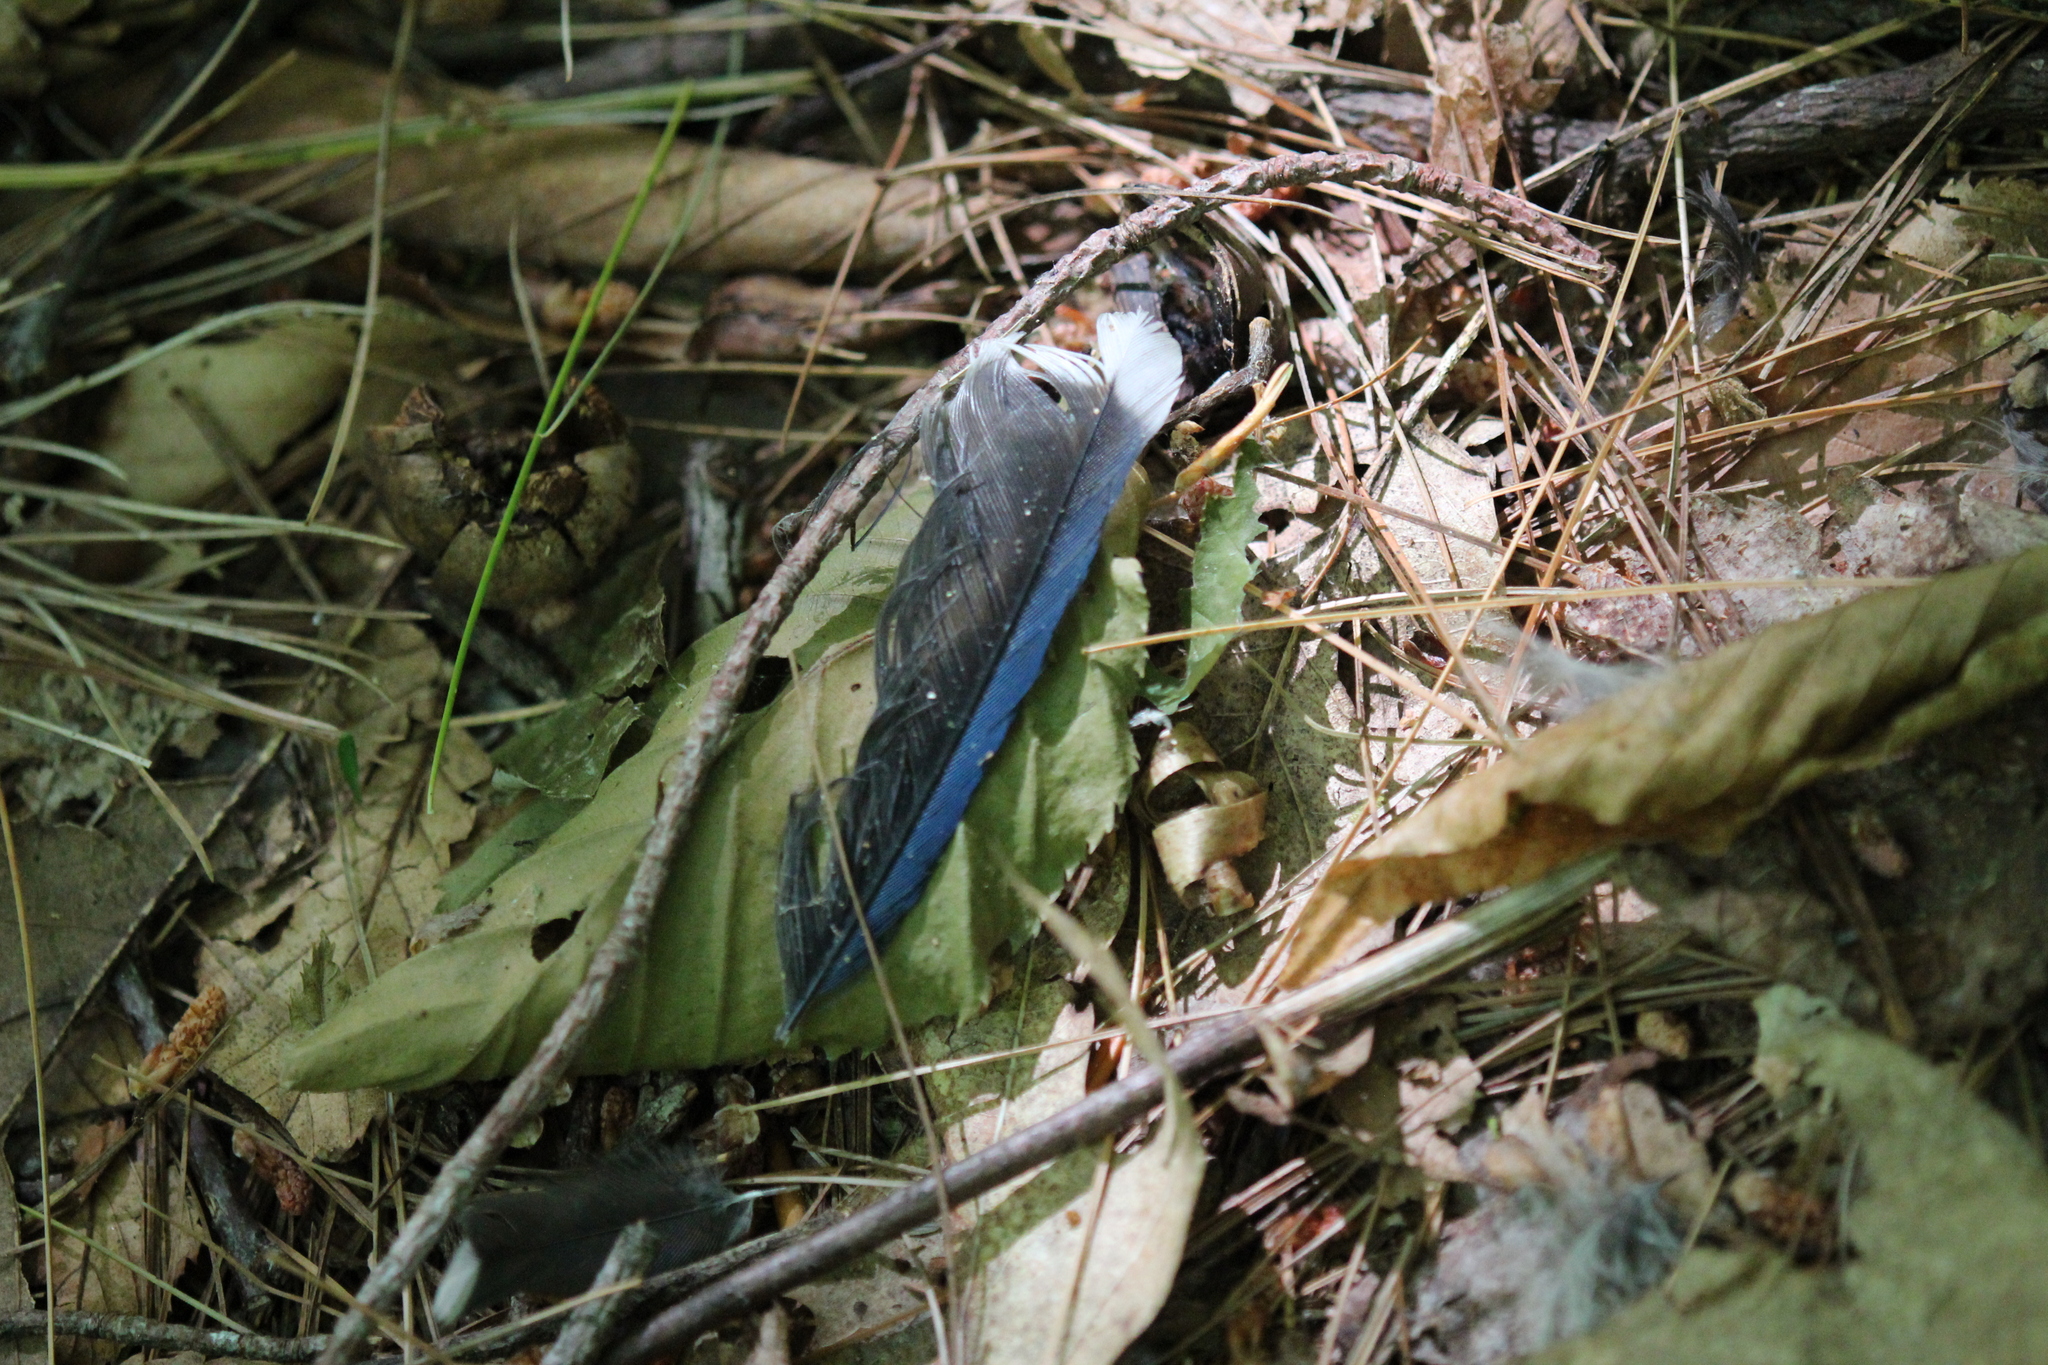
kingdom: Animalia
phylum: Chordata
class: Aves
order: Passeriformes
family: Corvidae
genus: Cyanocitta
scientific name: Cyanocitta cristata
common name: Blue jay
